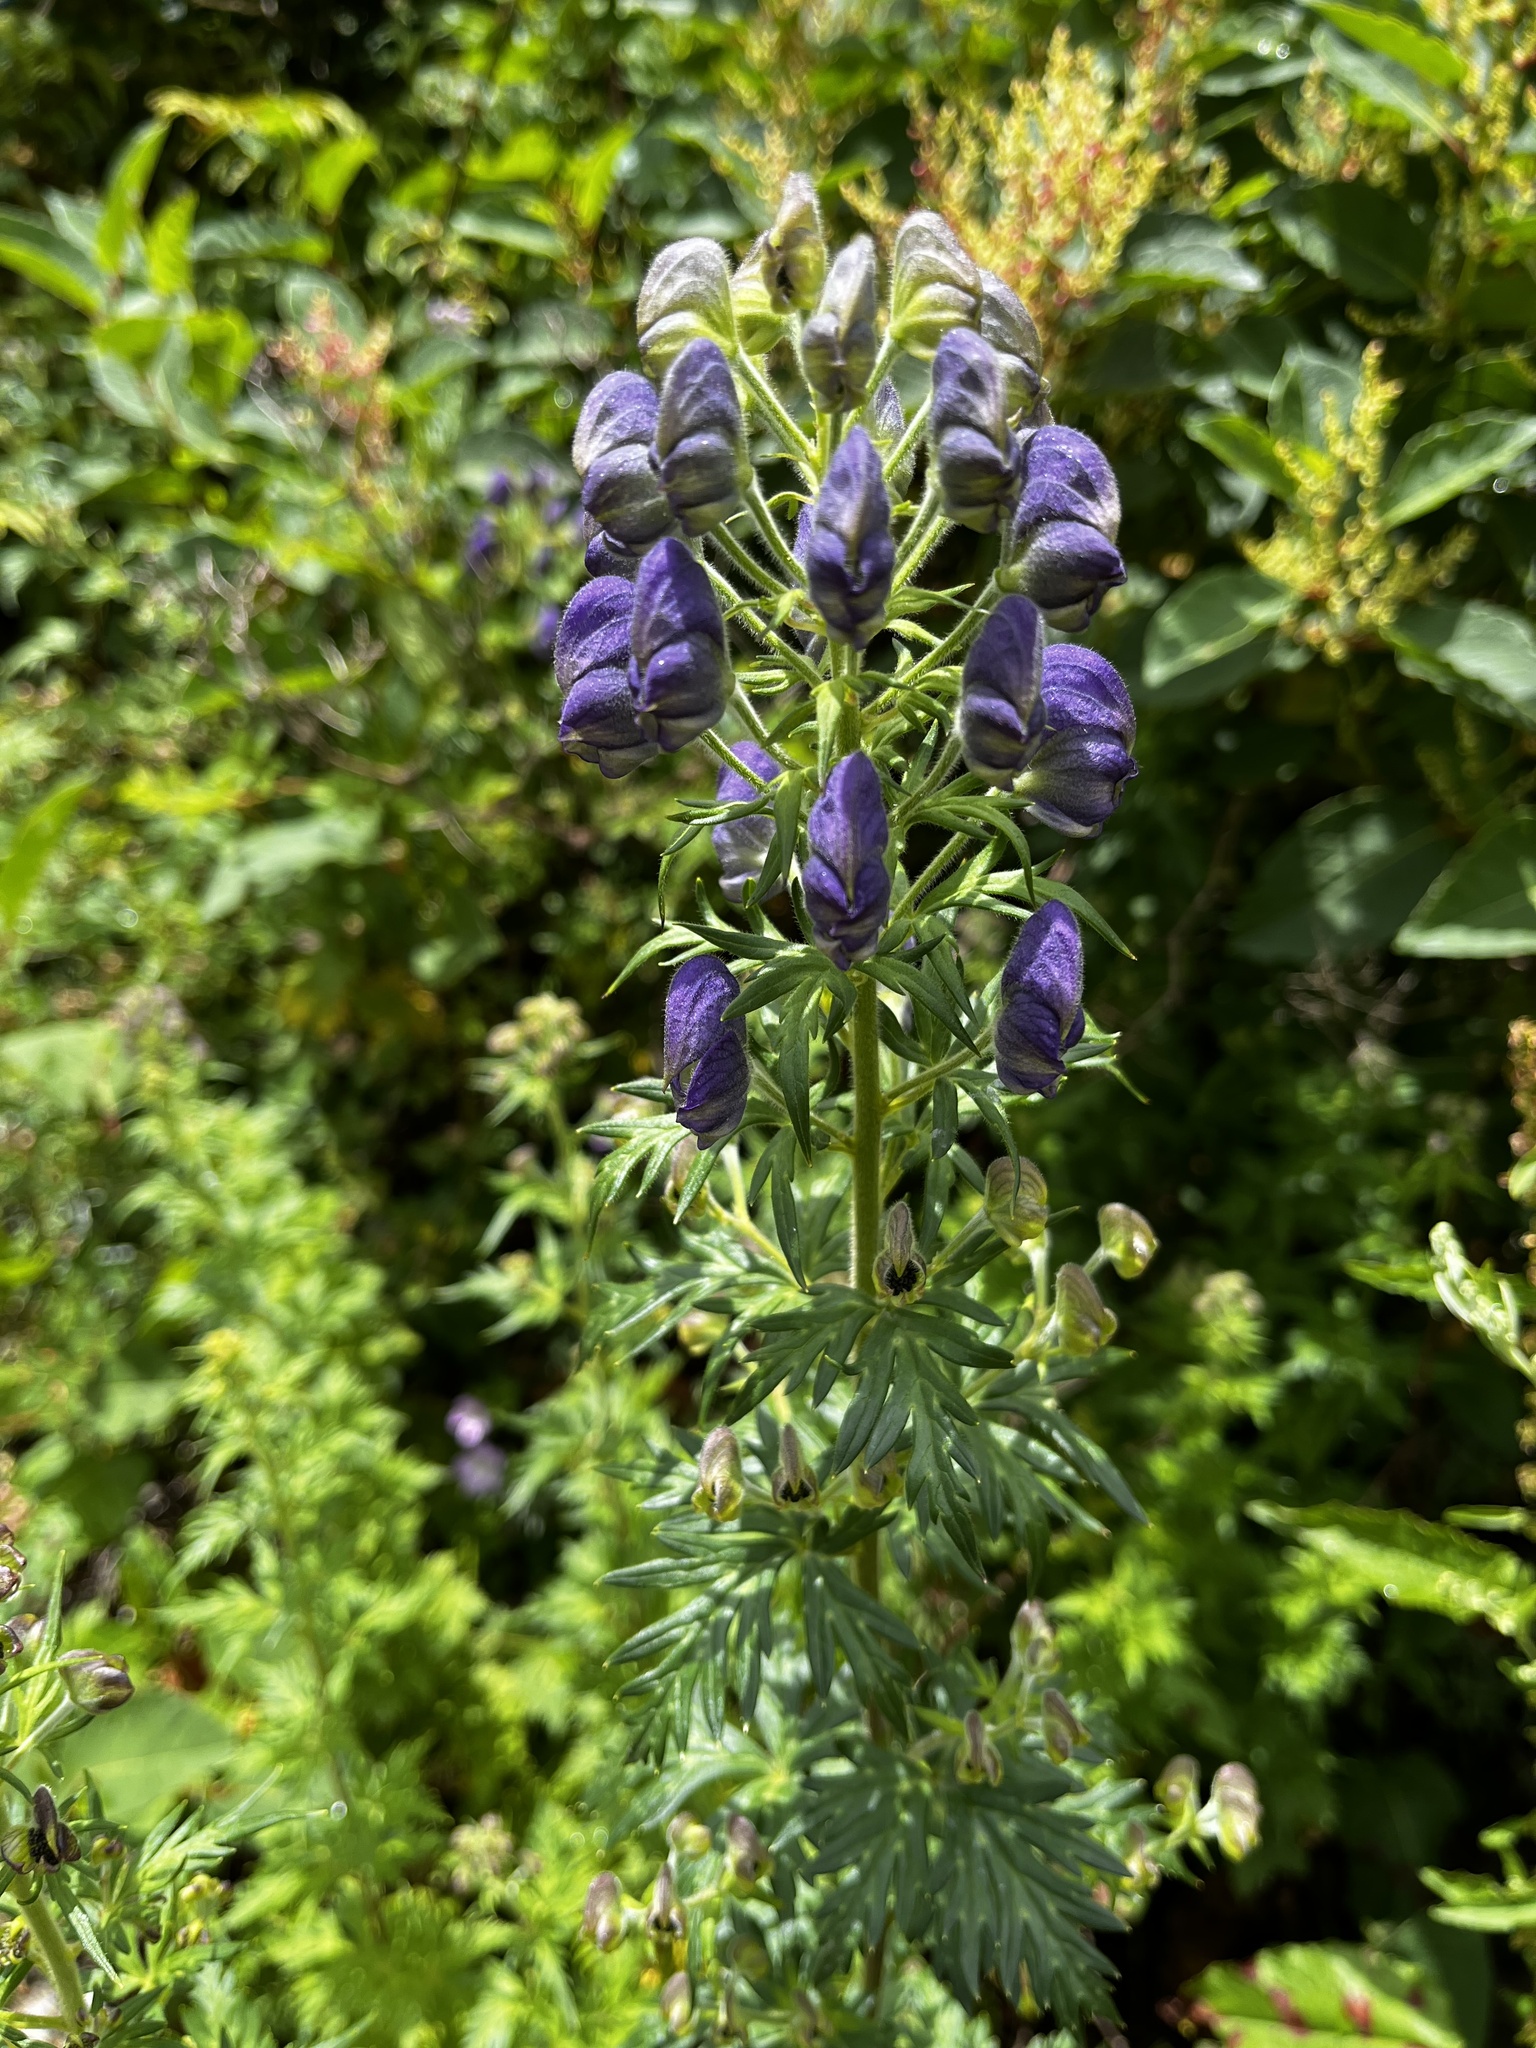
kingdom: Plantae
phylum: Tracheophyta
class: Magnoliopsida
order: Ranunculales
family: Ranunculaceae
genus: Aconitum
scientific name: Aconitum fukutomei
